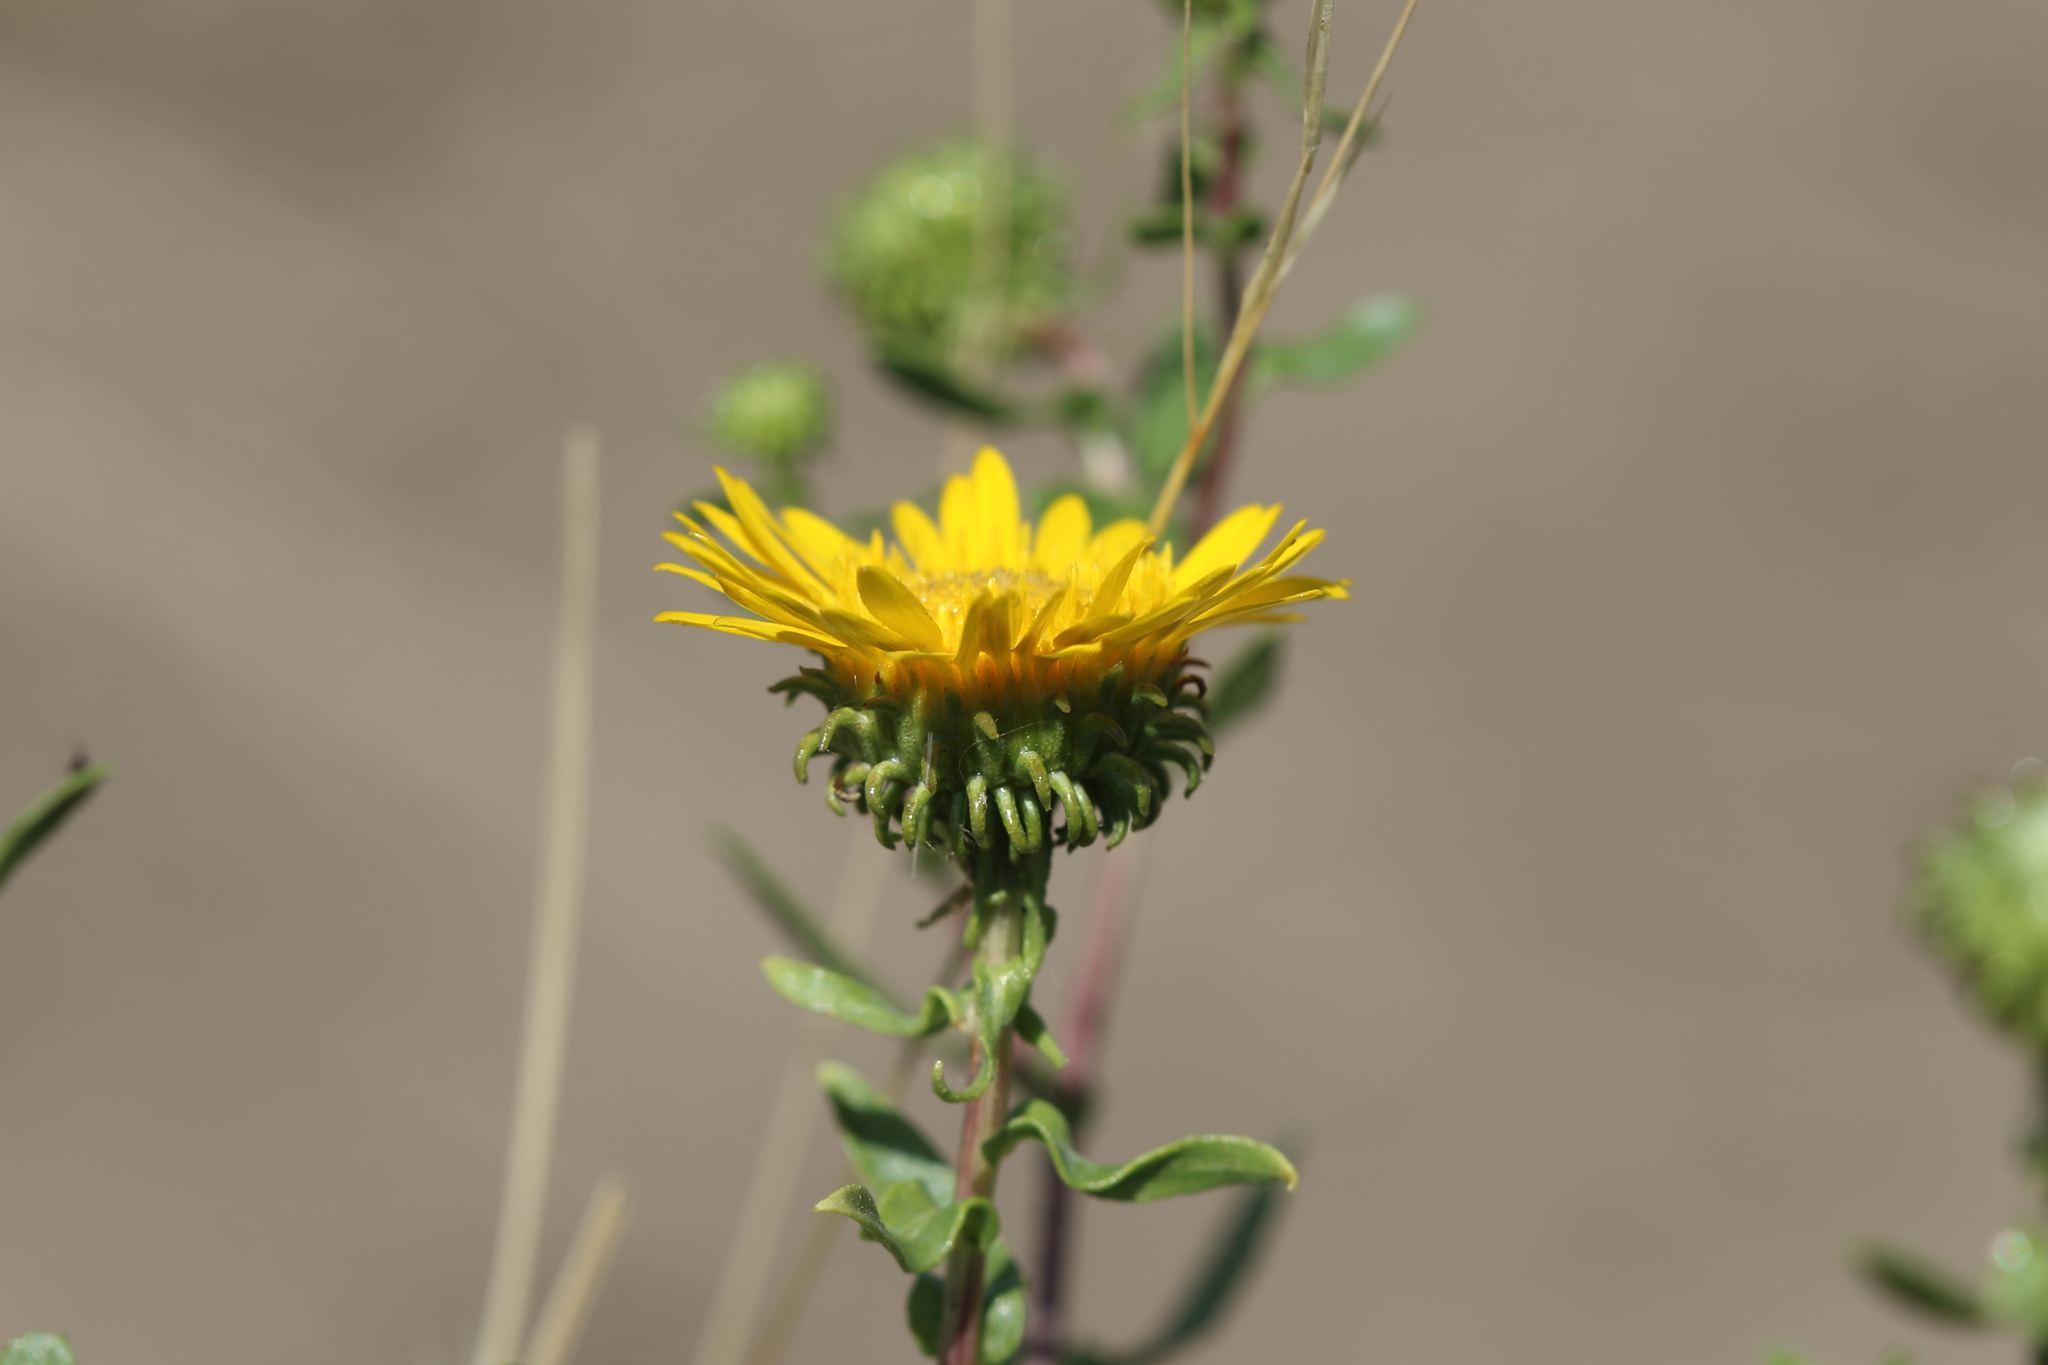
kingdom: Plantae
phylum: Tracheophyta
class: Magnoliopsida
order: Asterales
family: Asteraceae
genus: Grindelia
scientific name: Grindelia squarrosa
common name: Curly-cup gumweed
